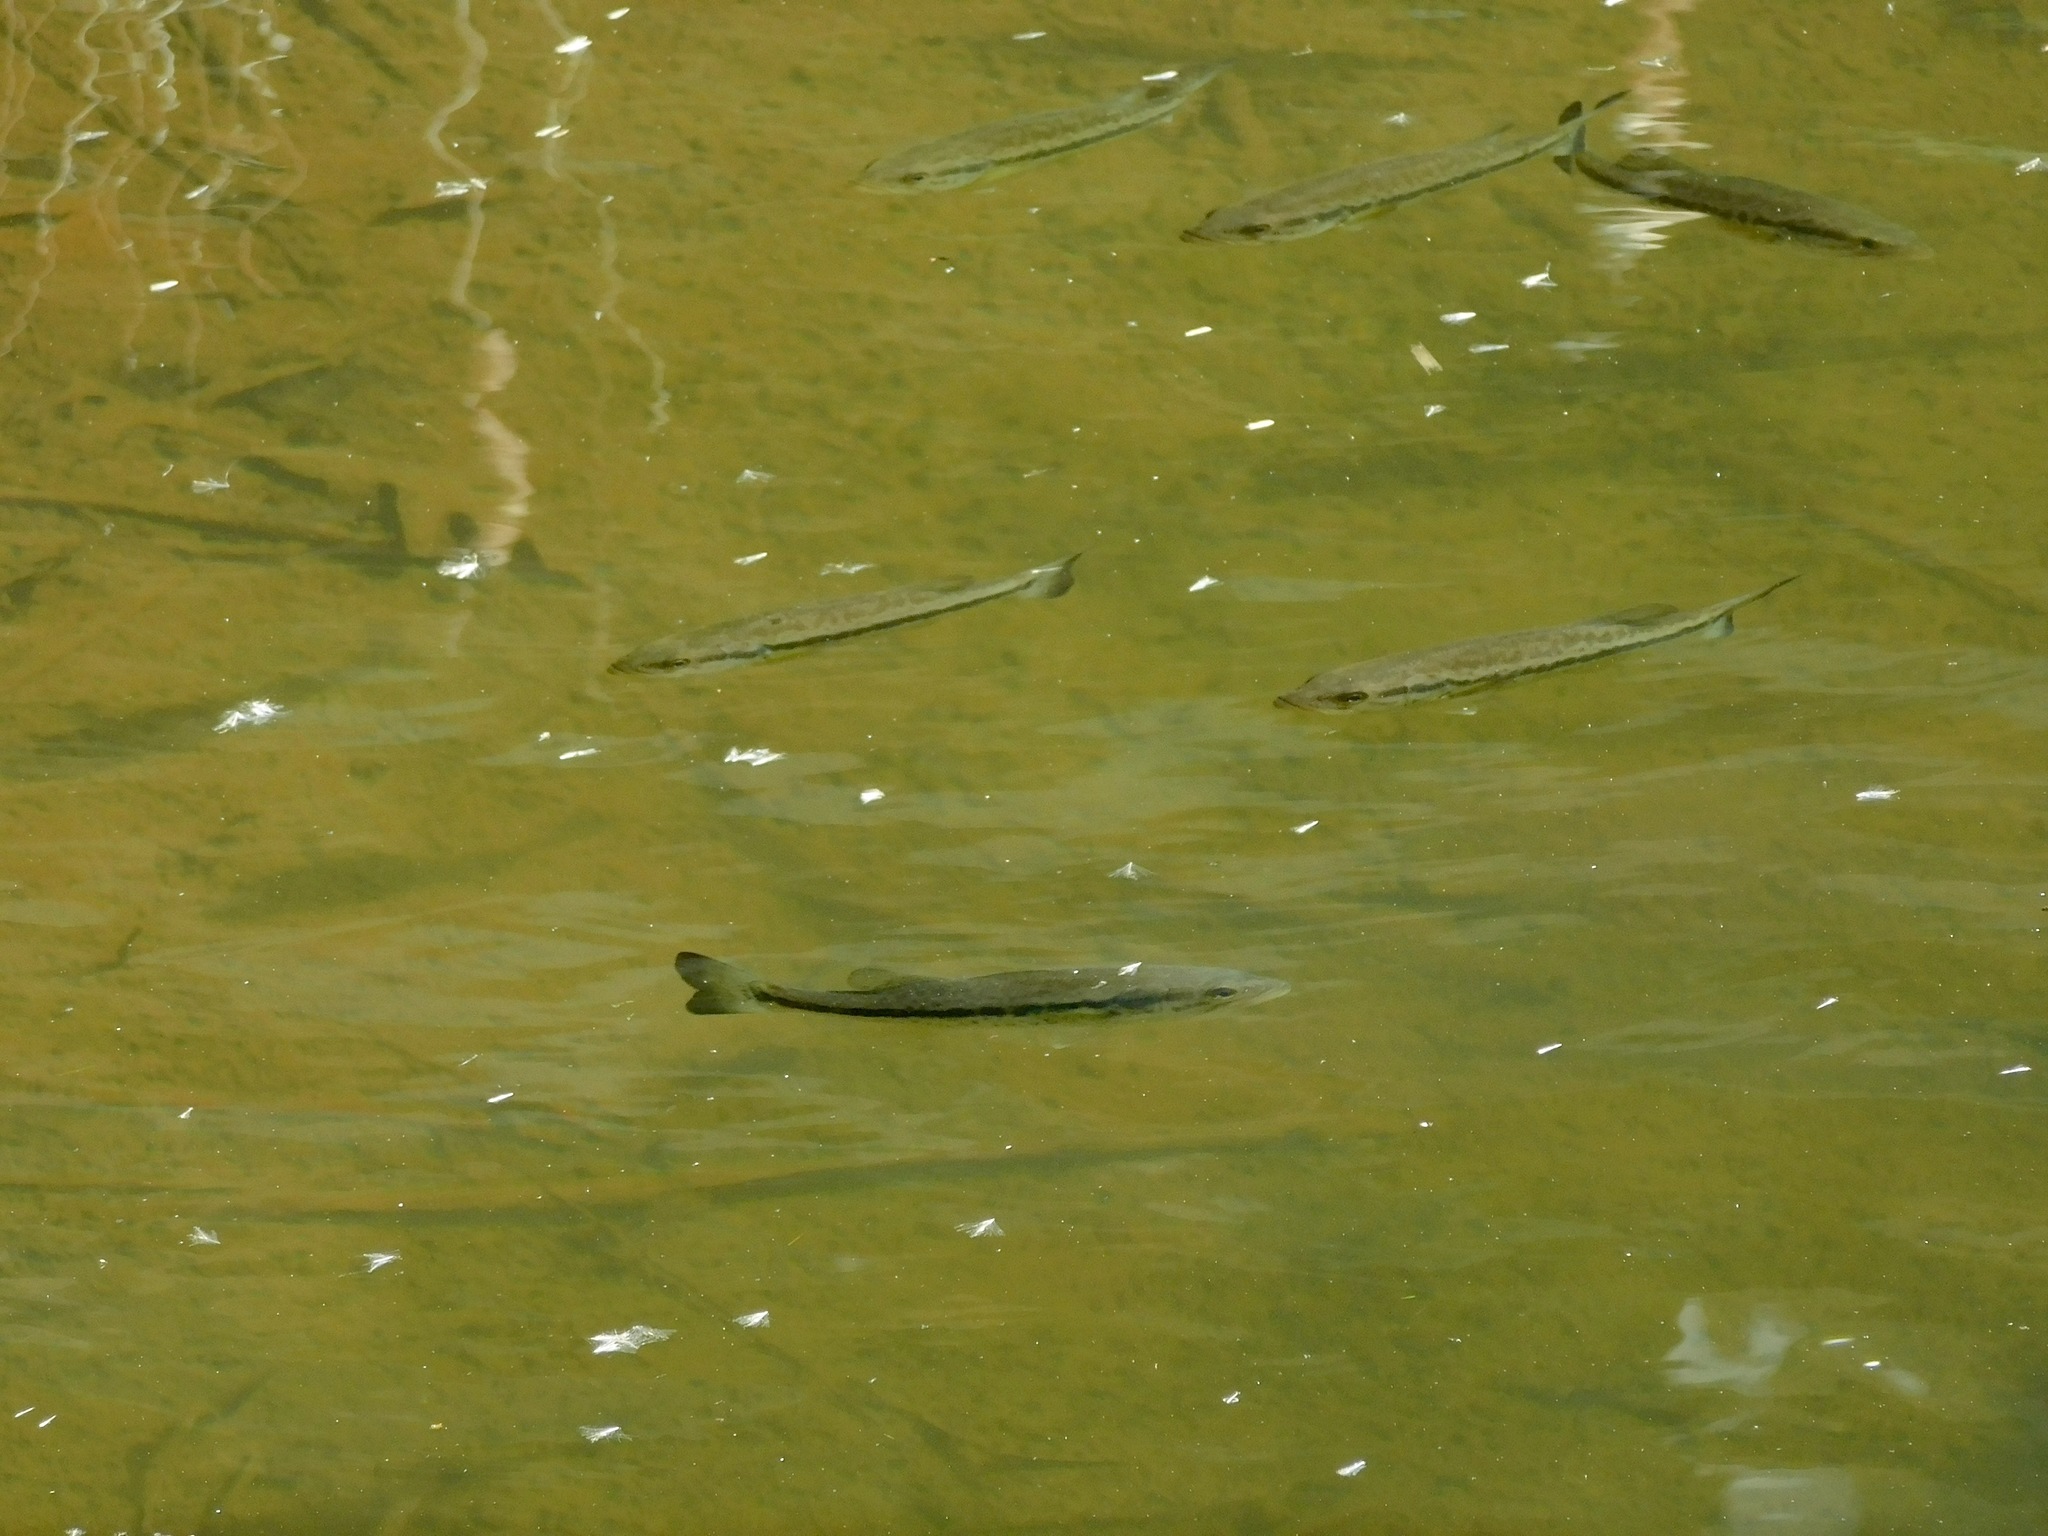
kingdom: Animalia
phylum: Chordata
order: Perciformes
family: Centrarchidae
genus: Micropterus
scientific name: Micropterus
